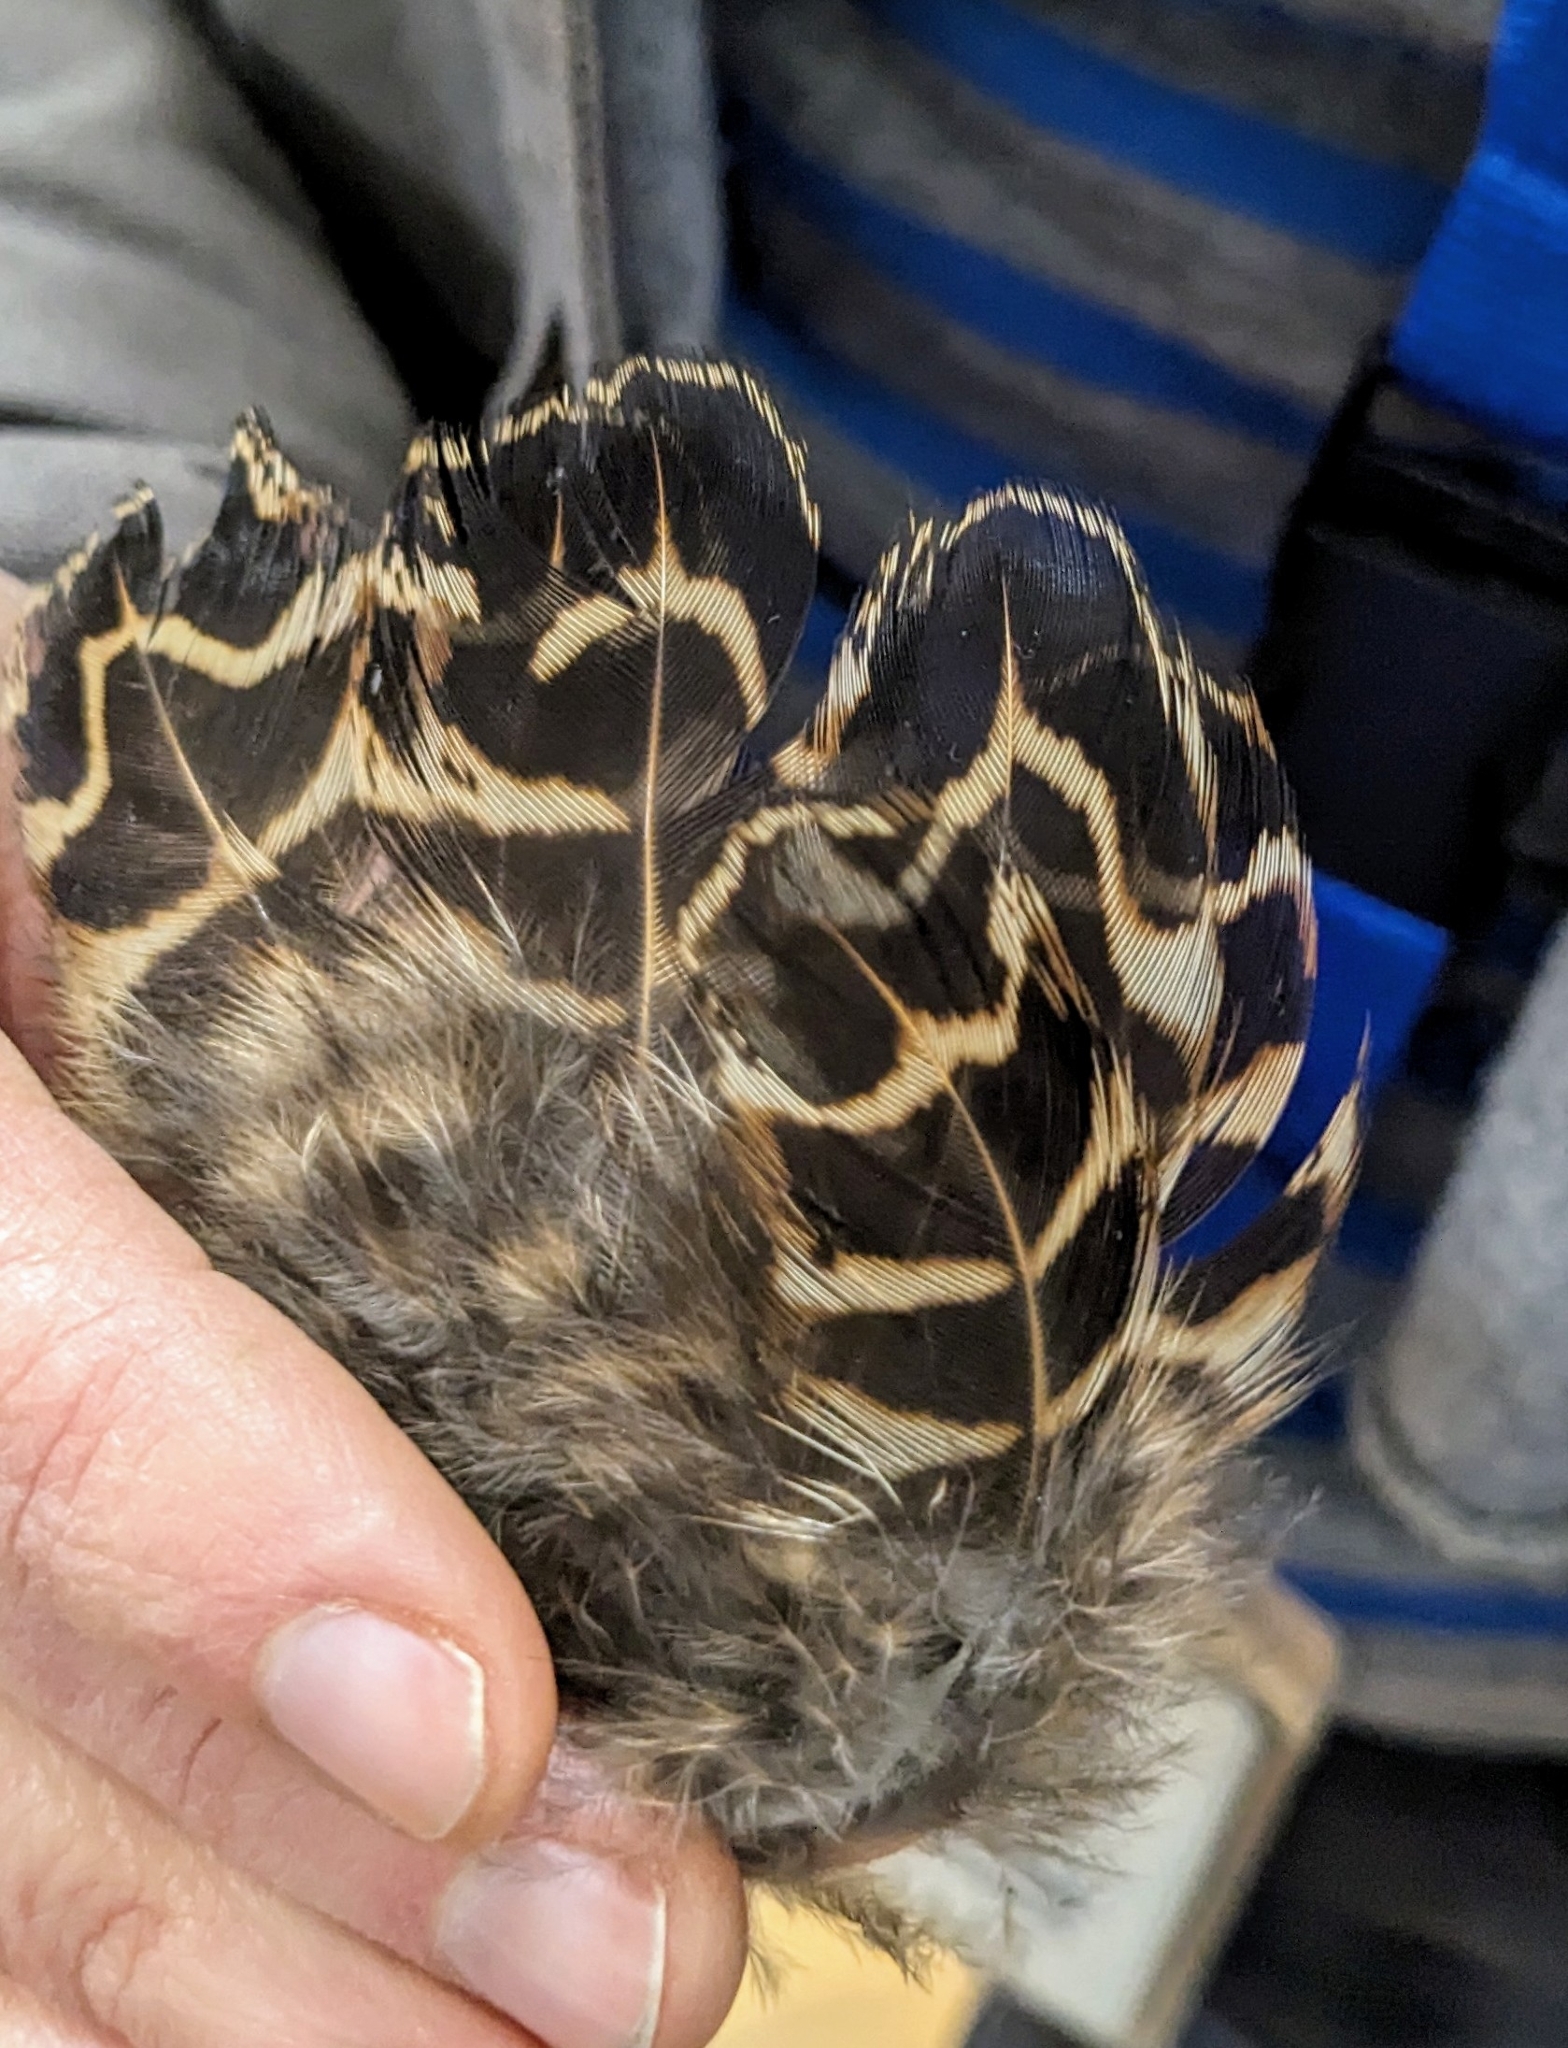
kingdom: Animalia
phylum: Chordata
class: Aves
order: Galliformes
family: Phasianidae
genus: Phasianus
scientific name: Phasianus colchicus
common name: Common pheasant
